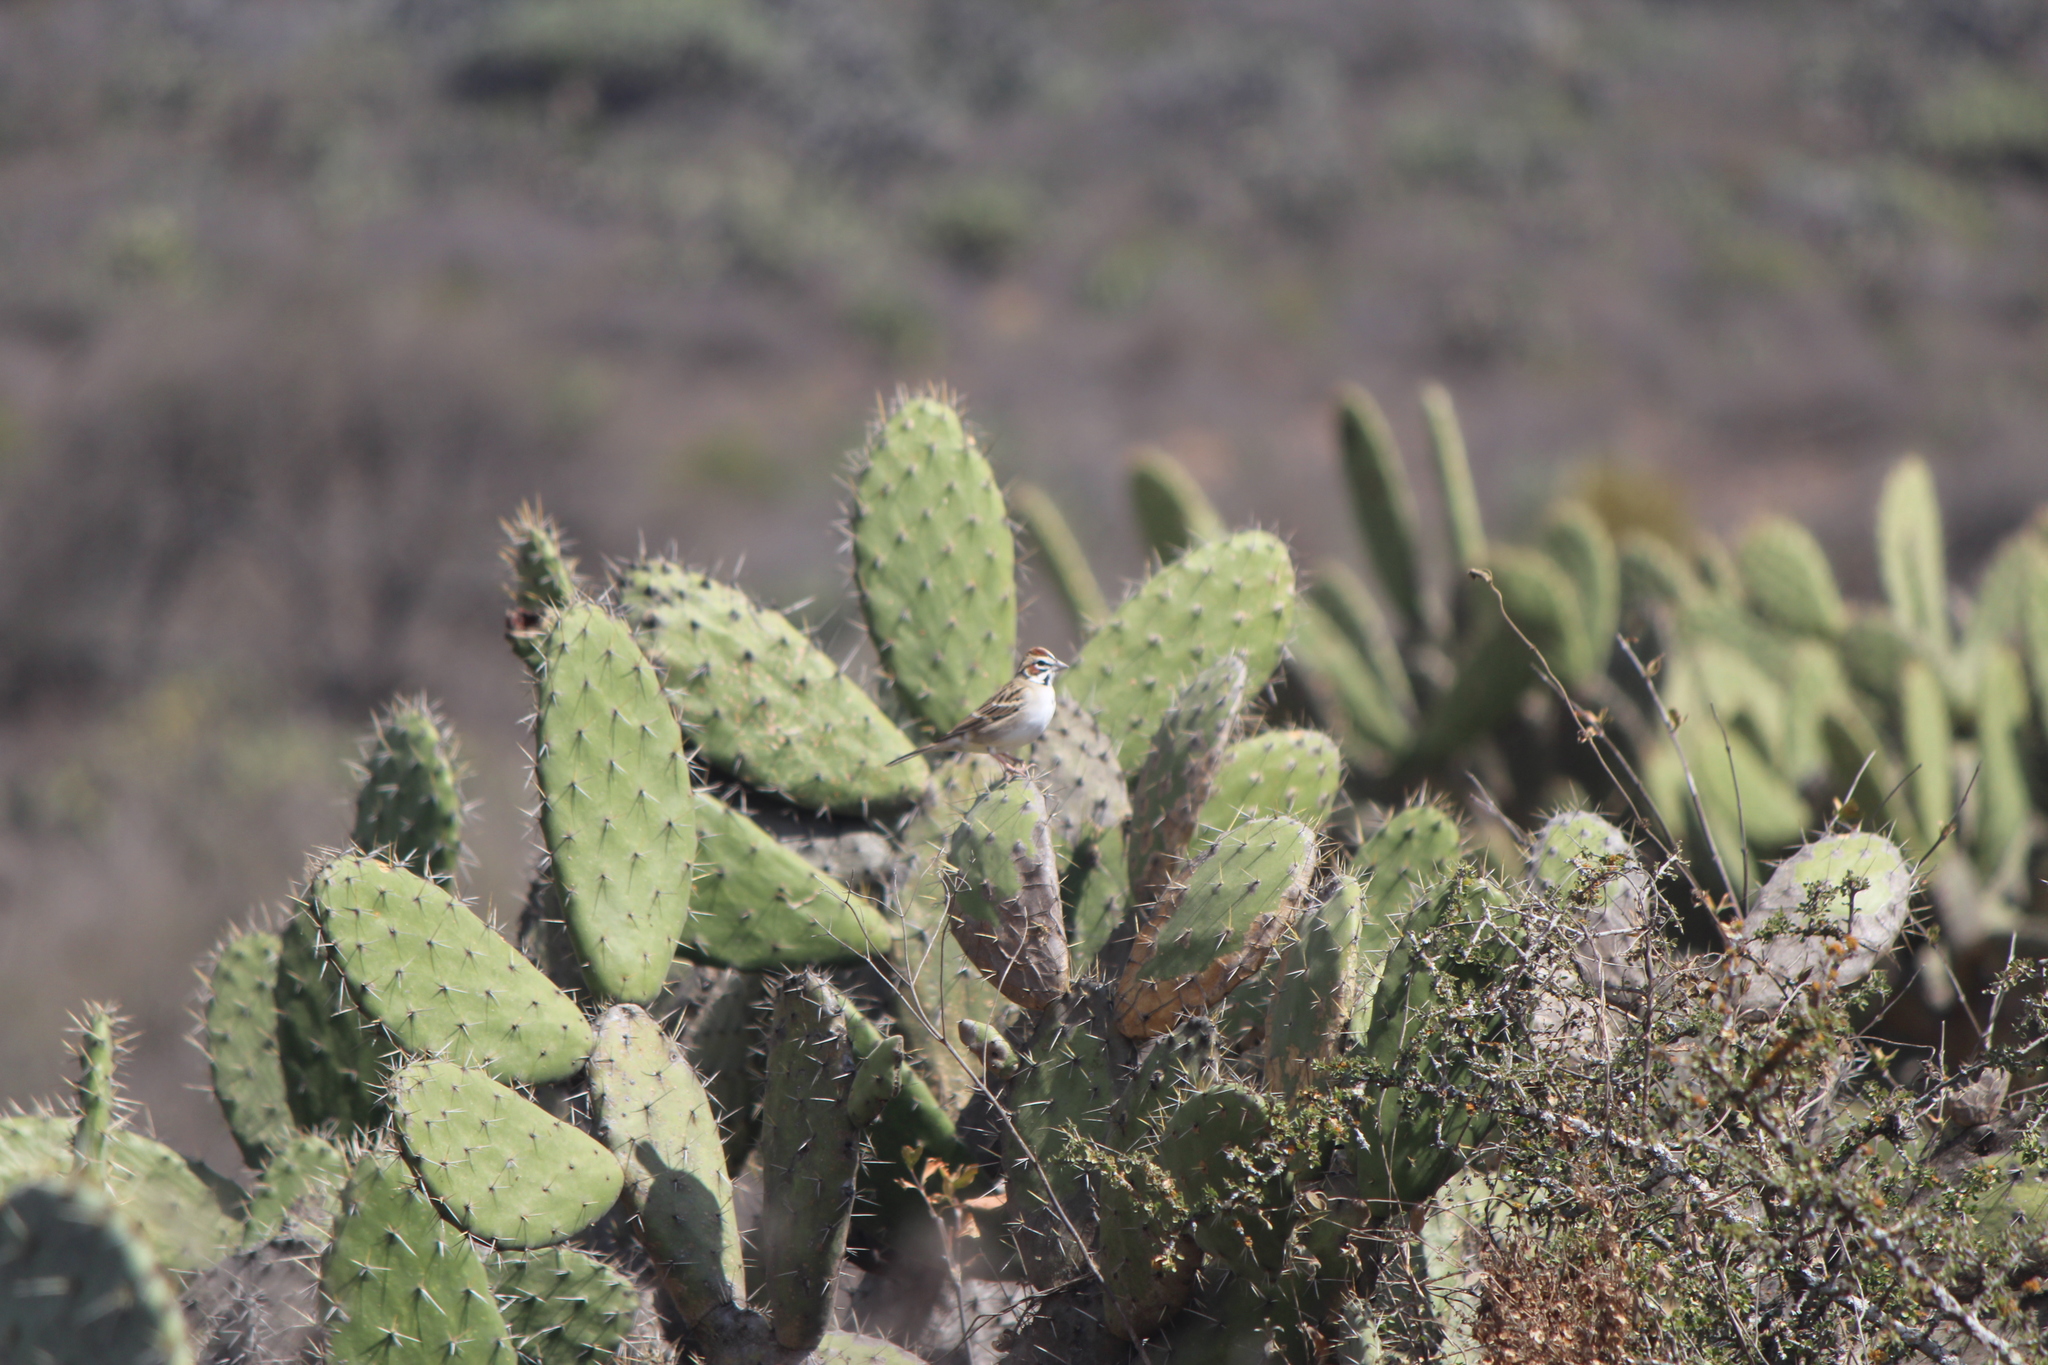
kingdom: Animalia
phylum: Chordata
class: Aves
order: Passeriformes
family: Passerellidae
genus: Chondestes
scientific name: Chondestes grammacus
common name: Lark sparrow
